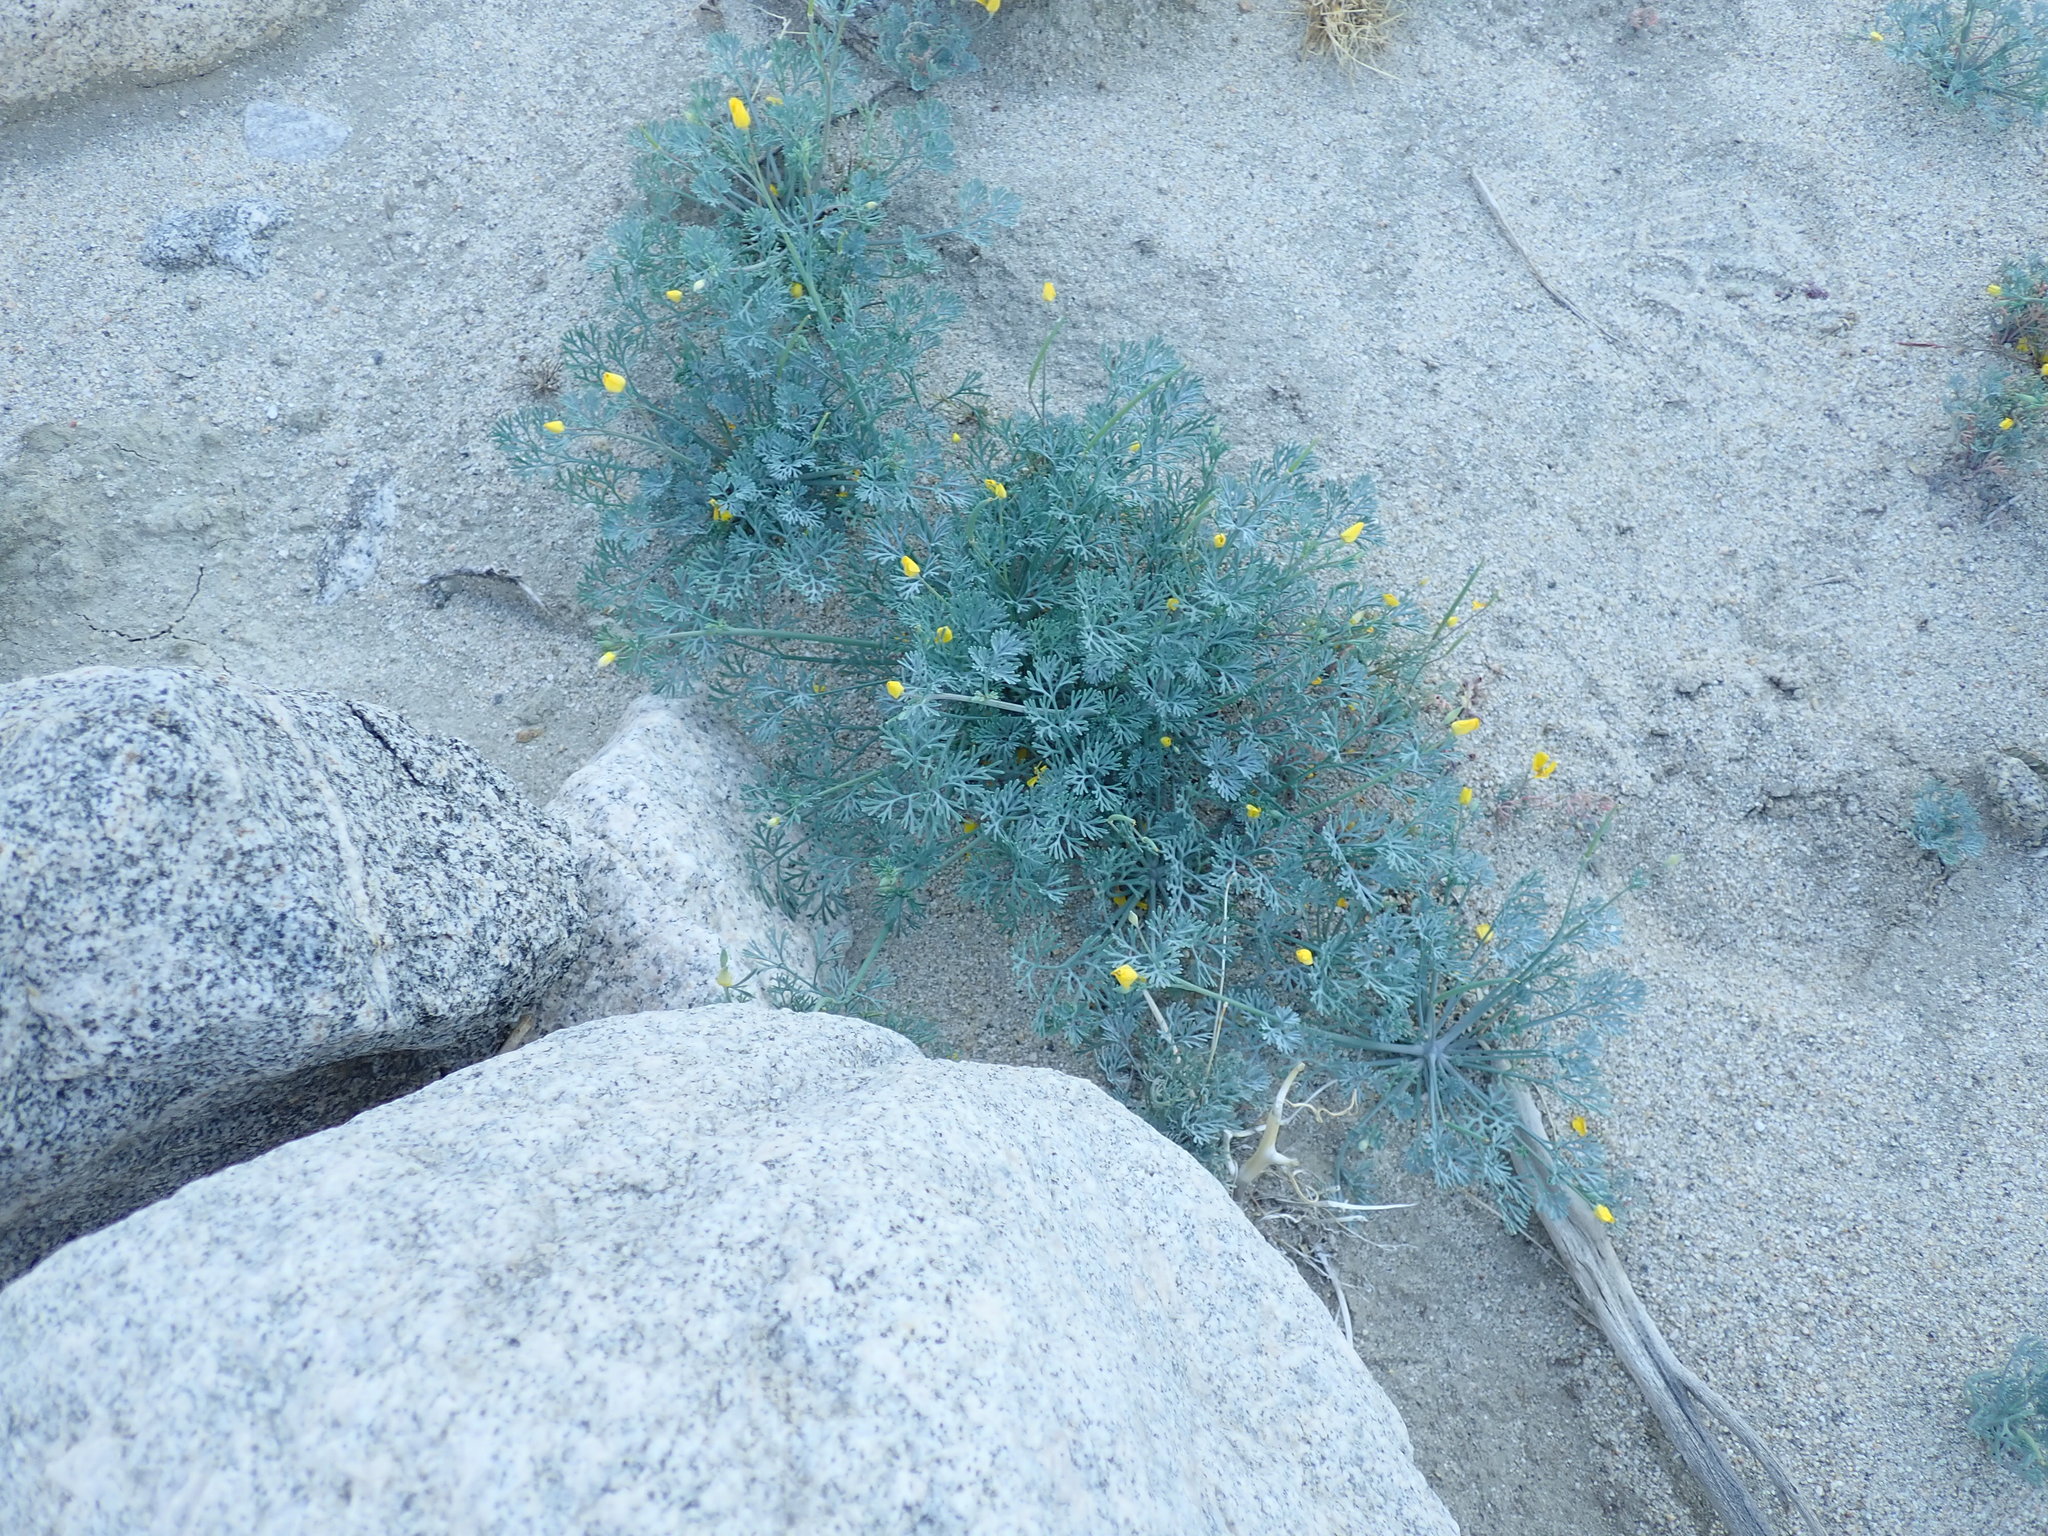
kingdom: Plantae
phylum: Tracheophyta
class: Magnoliopsida
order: Ranunculales
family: Papaveraceae
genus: Eschscholzia
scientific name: Eschscholzia minutiflora
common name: Small-flower california-poppy
